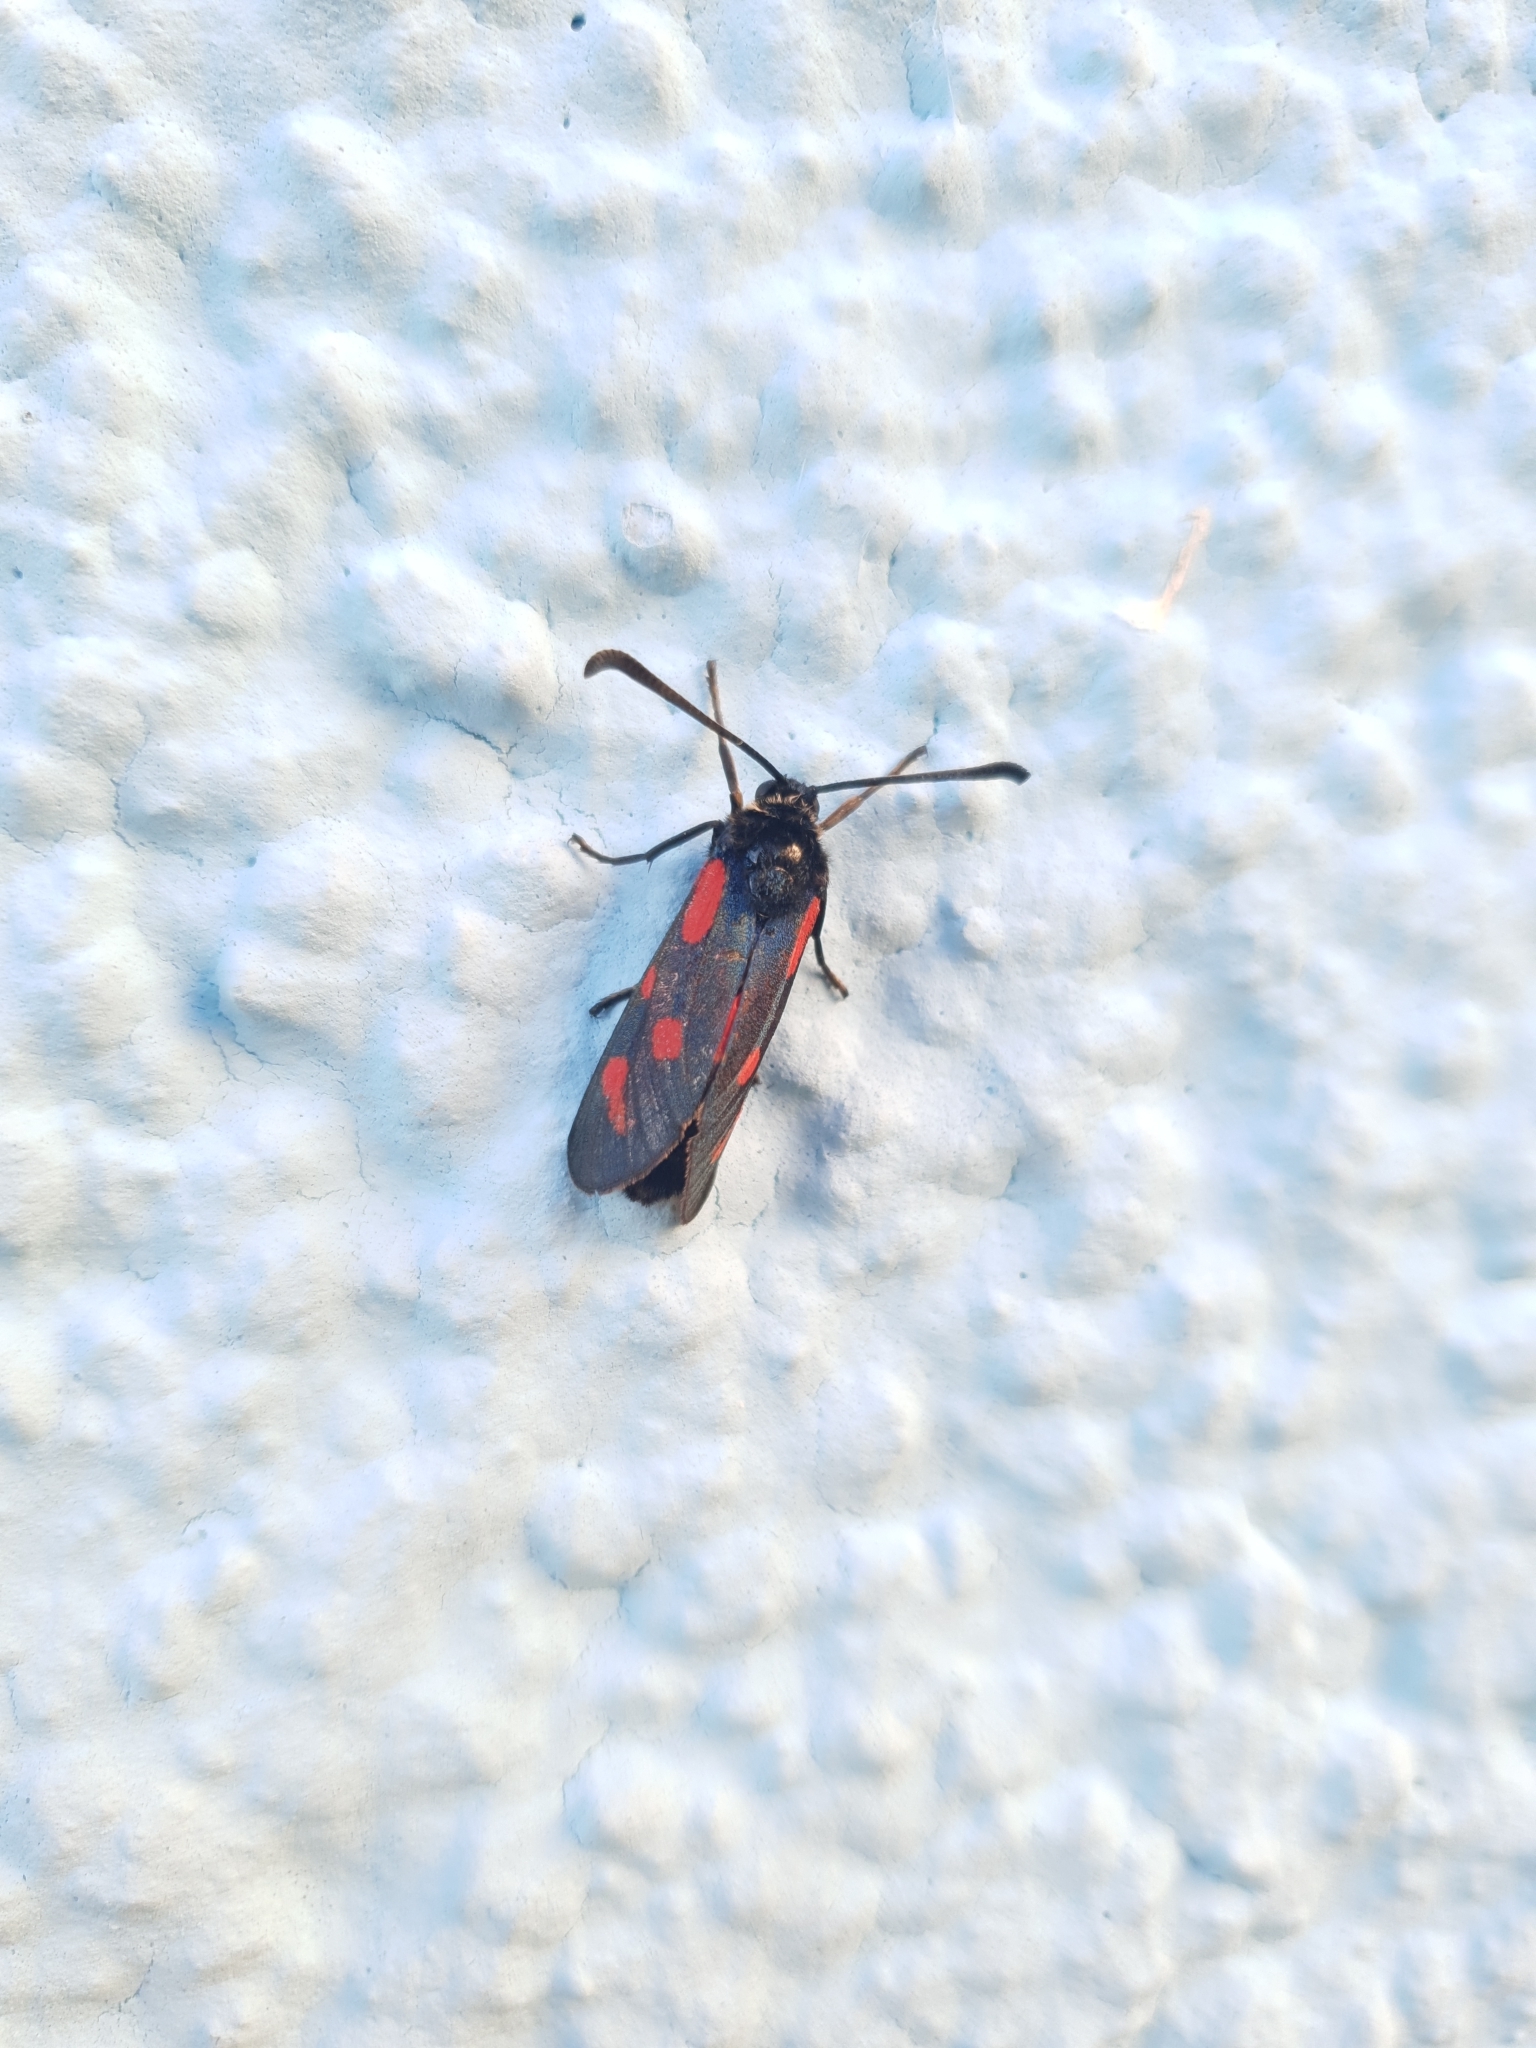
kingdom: Animalia
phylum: Arthropoda
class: Insecta
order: Lepidoptera
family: Zygaenidae
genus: Zygaena
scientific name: Zygaena loti
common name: Slender scotch burnet
